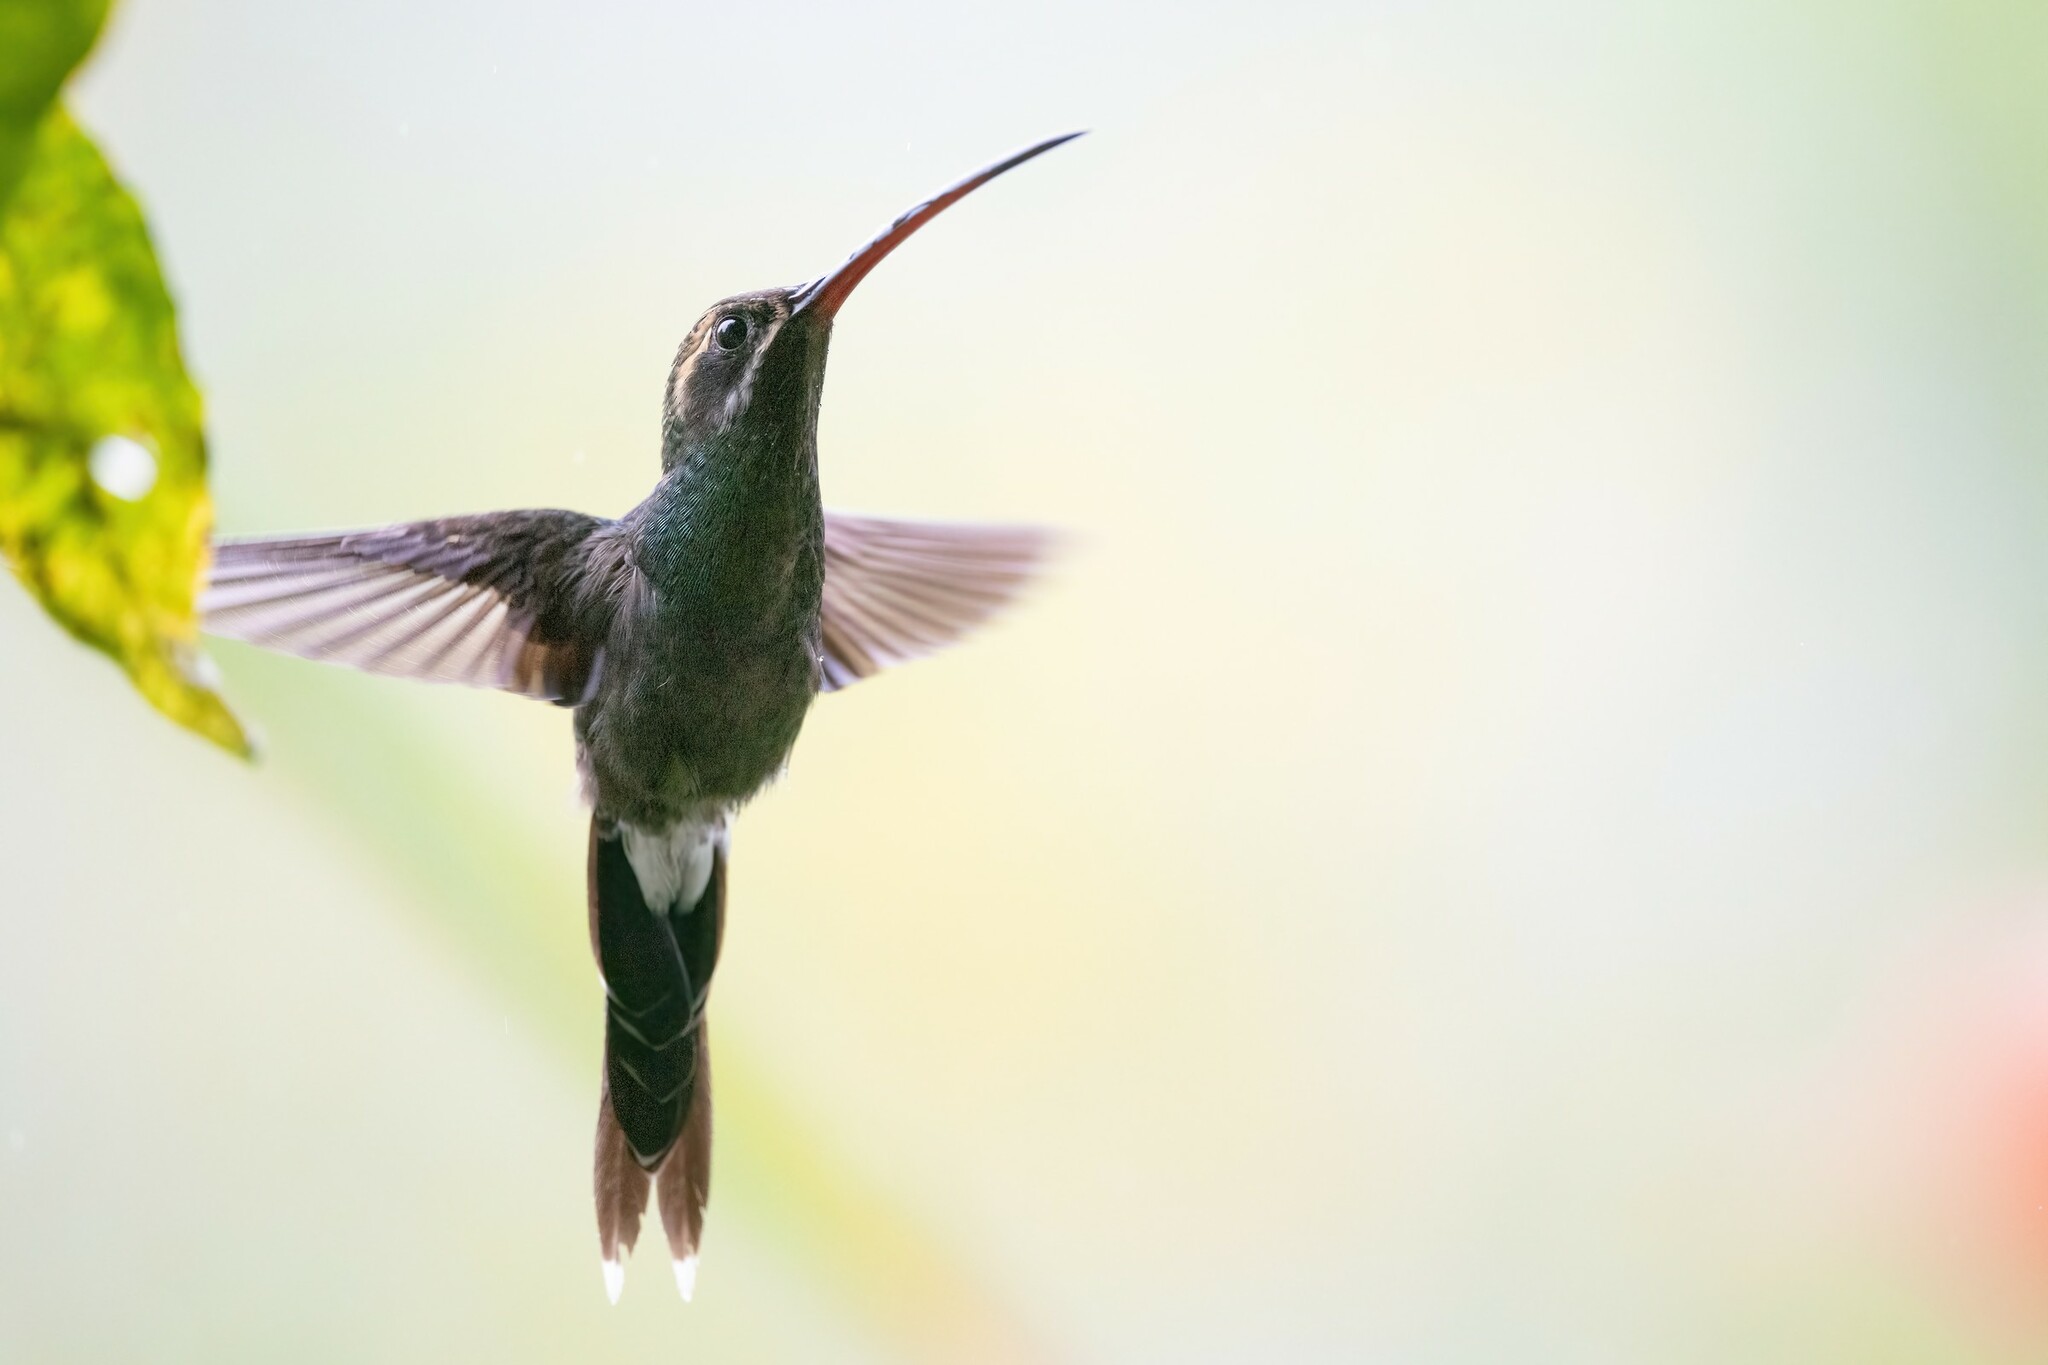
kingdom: Animalia
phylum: Chordata
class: Aves
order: Apodiformes
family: Trochilidae
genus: Phaethornis
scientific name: Phaethornis yaruqui
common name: White-whiskered hermit
